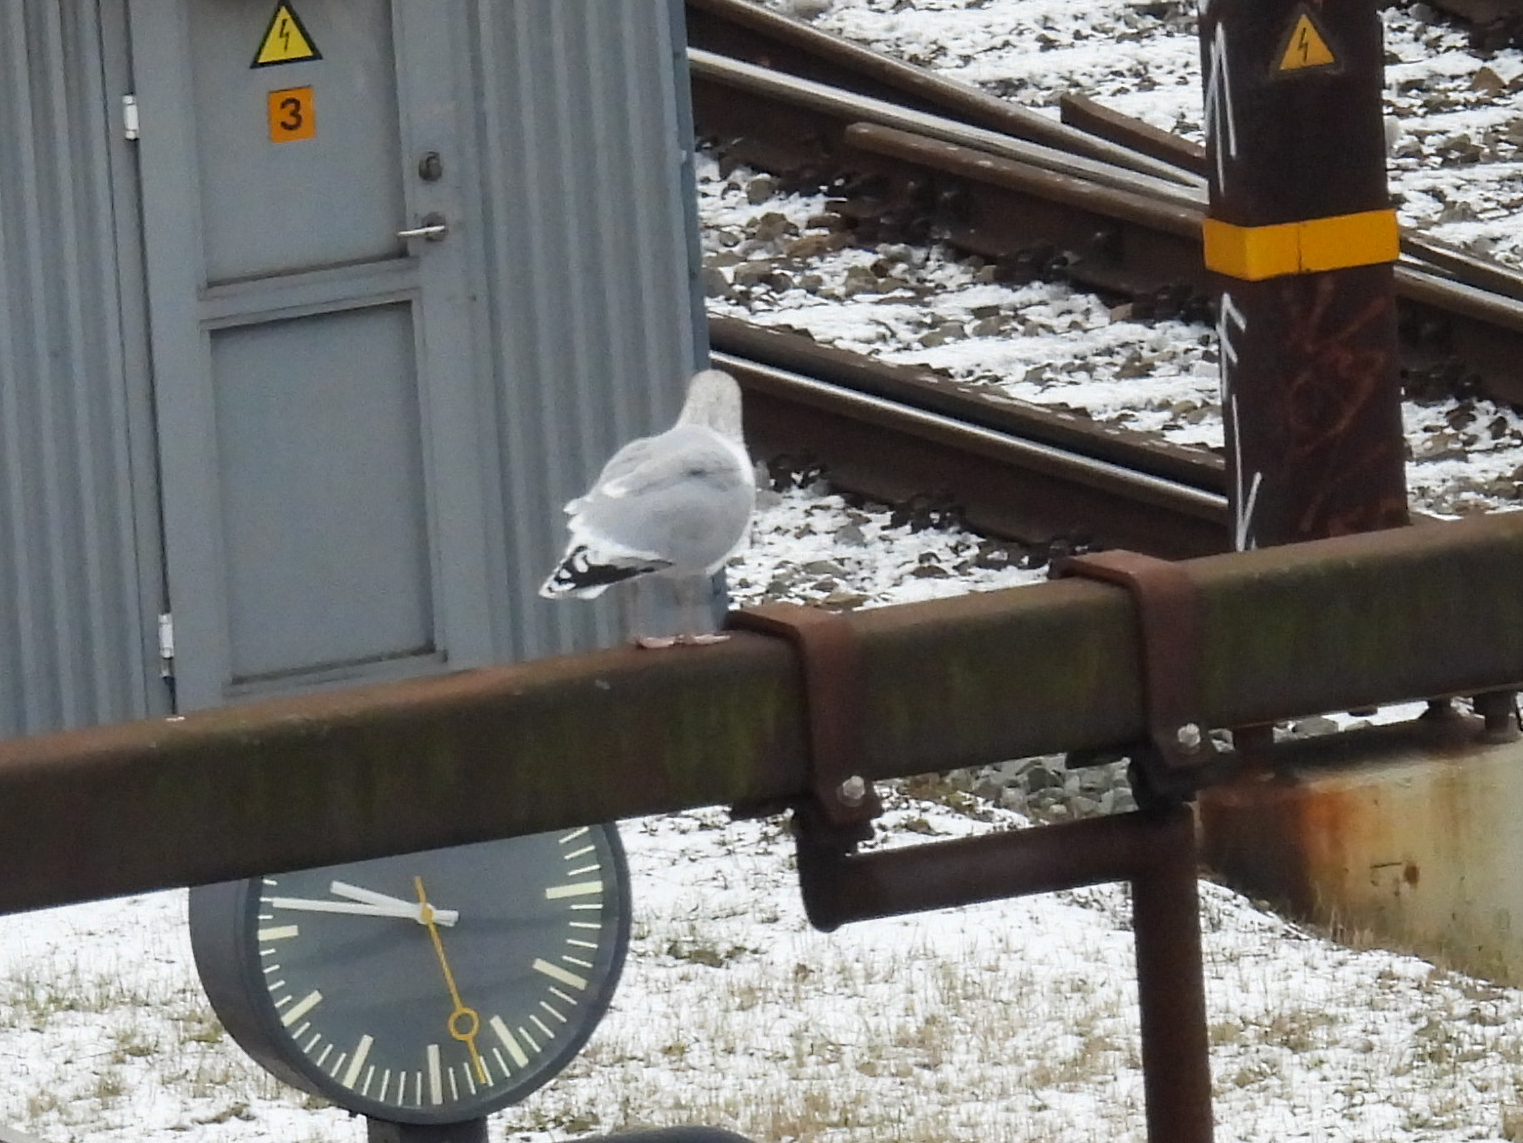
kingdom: Animalia
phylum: Chordata
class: Aves
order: Charadriiformes
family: Laridae
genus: Larus
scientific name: Larus argentatus
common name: Herring gull
